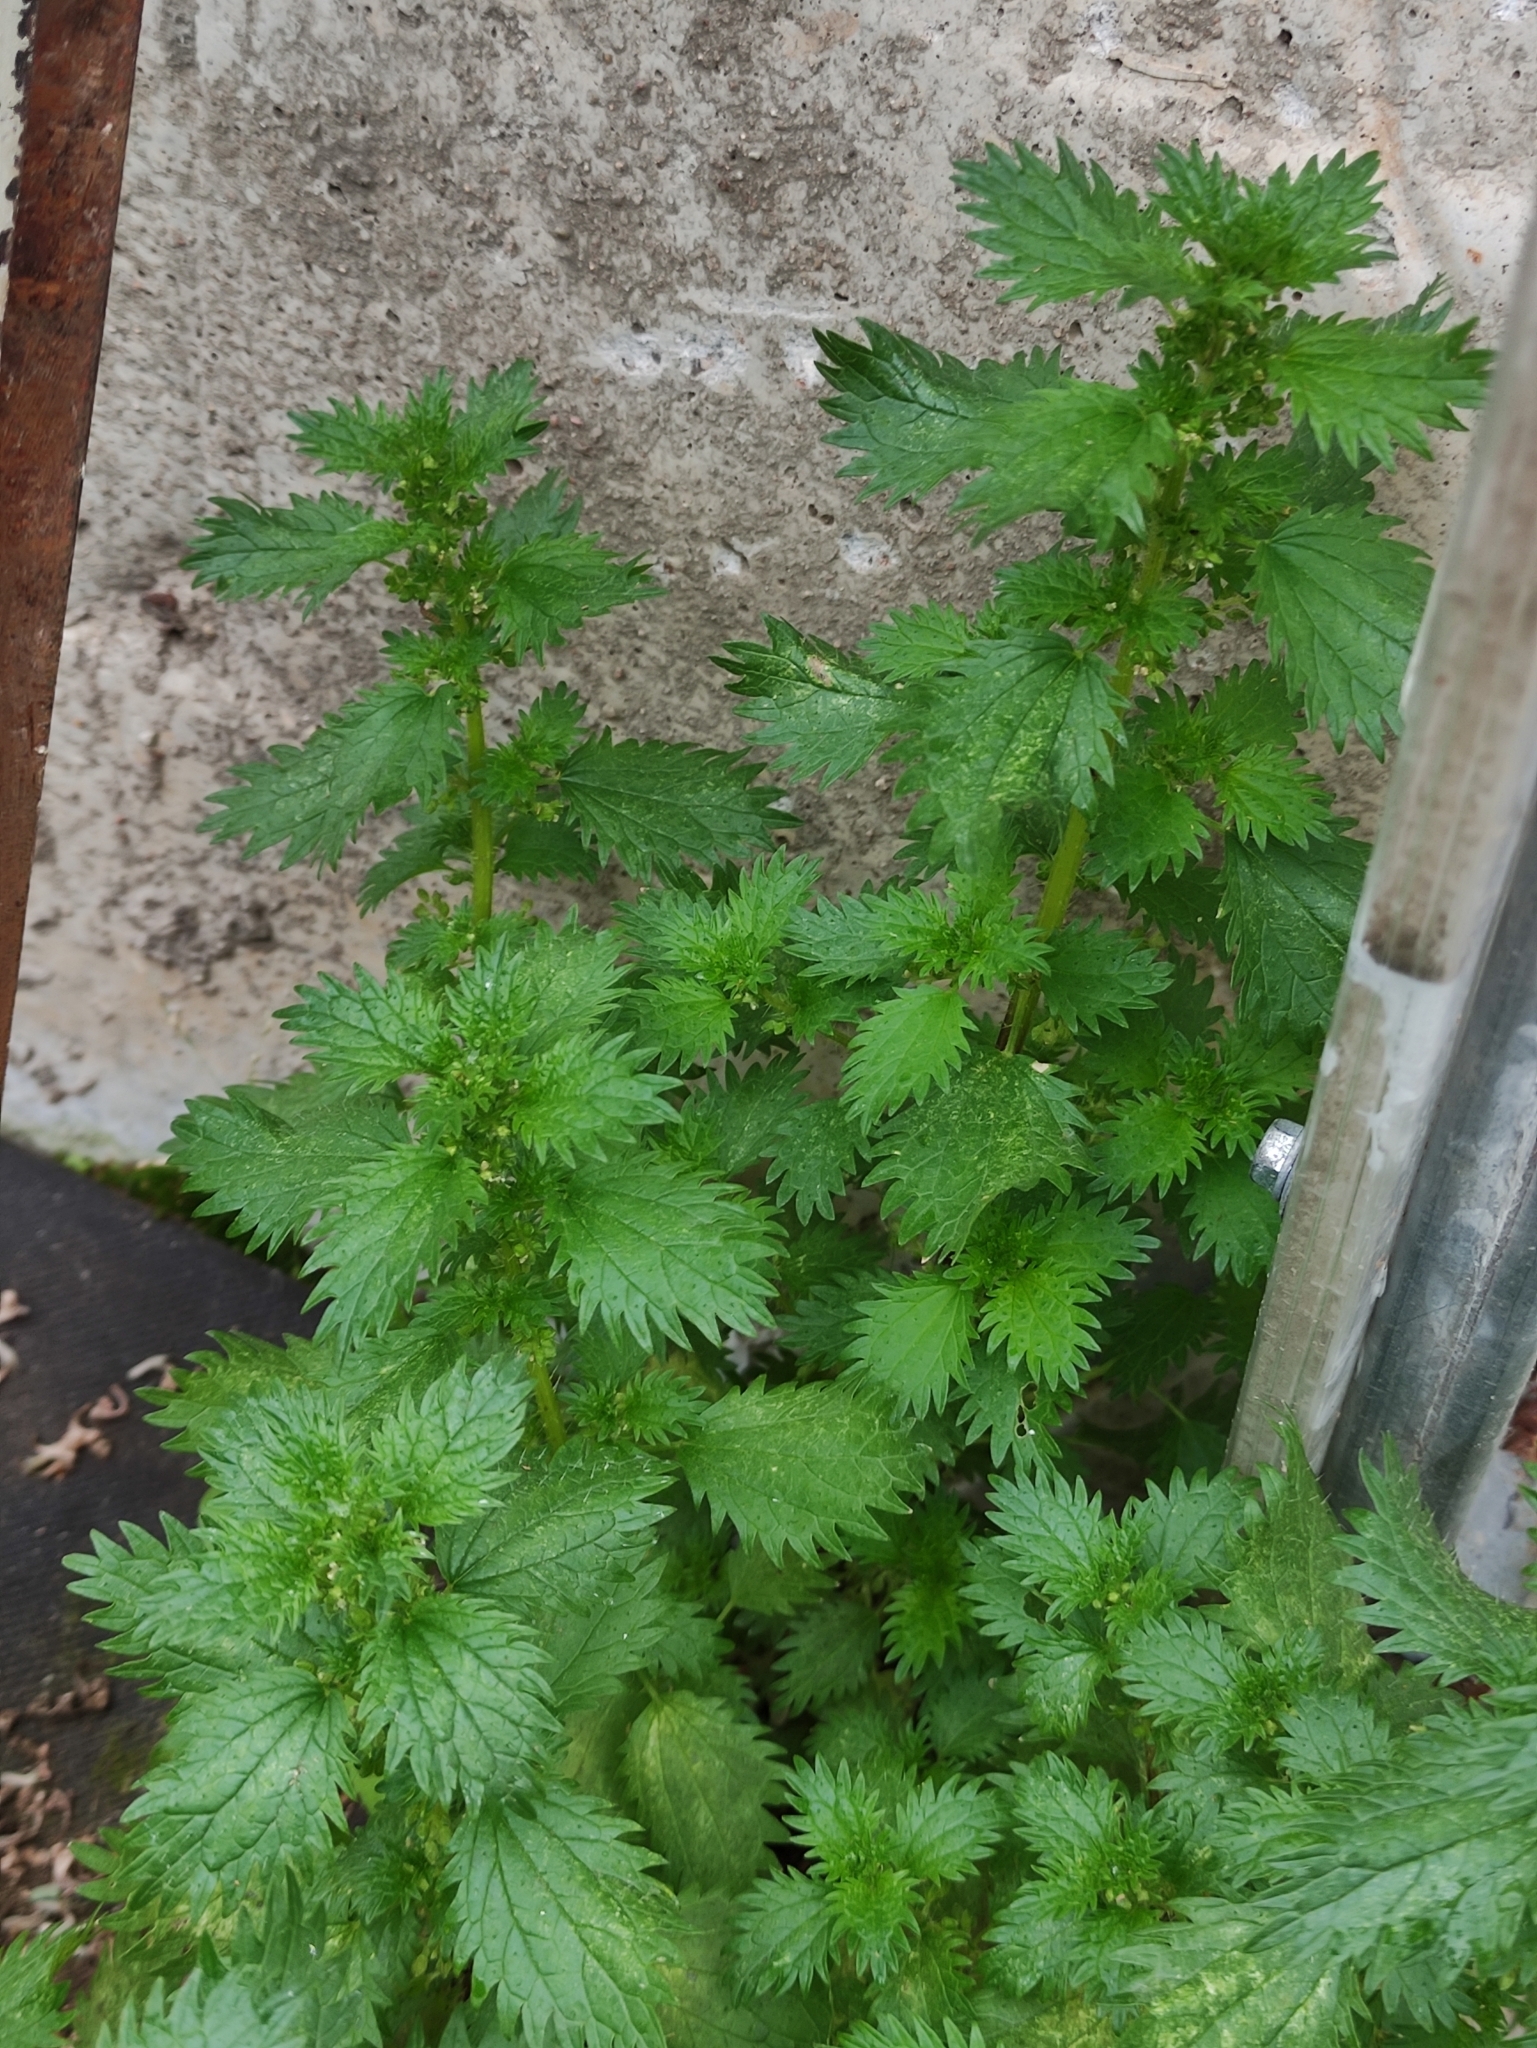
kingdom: Plantae
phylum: Tracheophyta
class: Magnoliopsida
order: Rosales
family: Urticaceae
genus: Urtica
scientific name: Urtica urens
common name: Dwarf nettle
